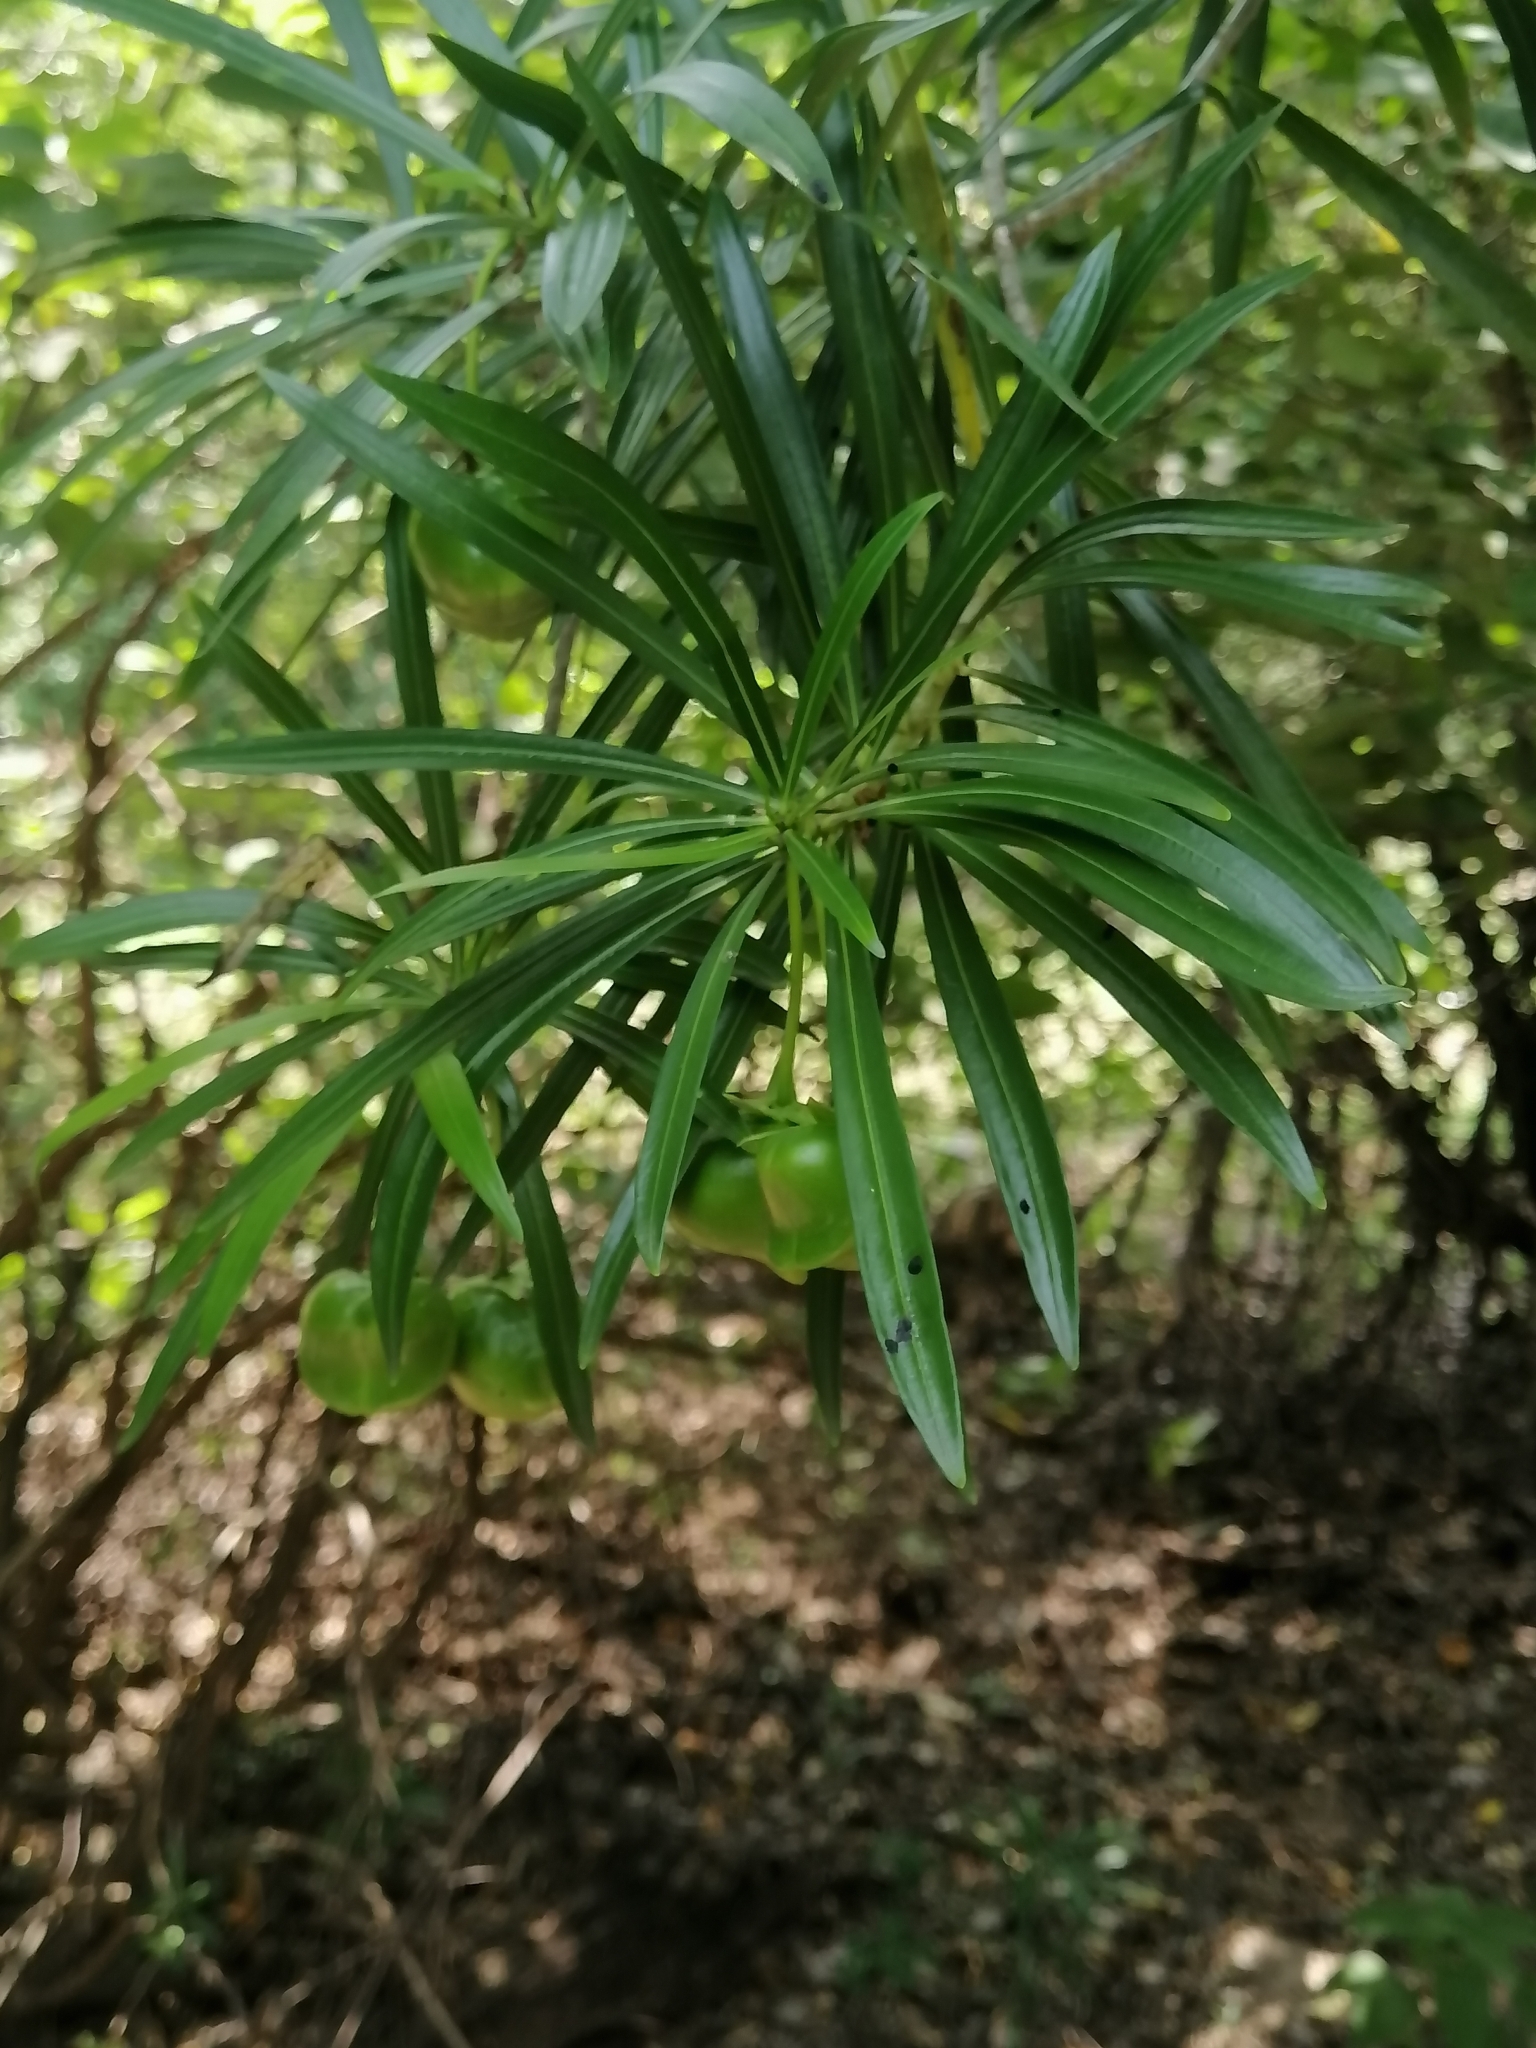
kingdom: Plantae
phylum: Tracheophyta
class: Magnoliopsida
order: Gentianales
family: Apocynaceae
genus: Cascabela
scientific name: Cascabela thevetia
